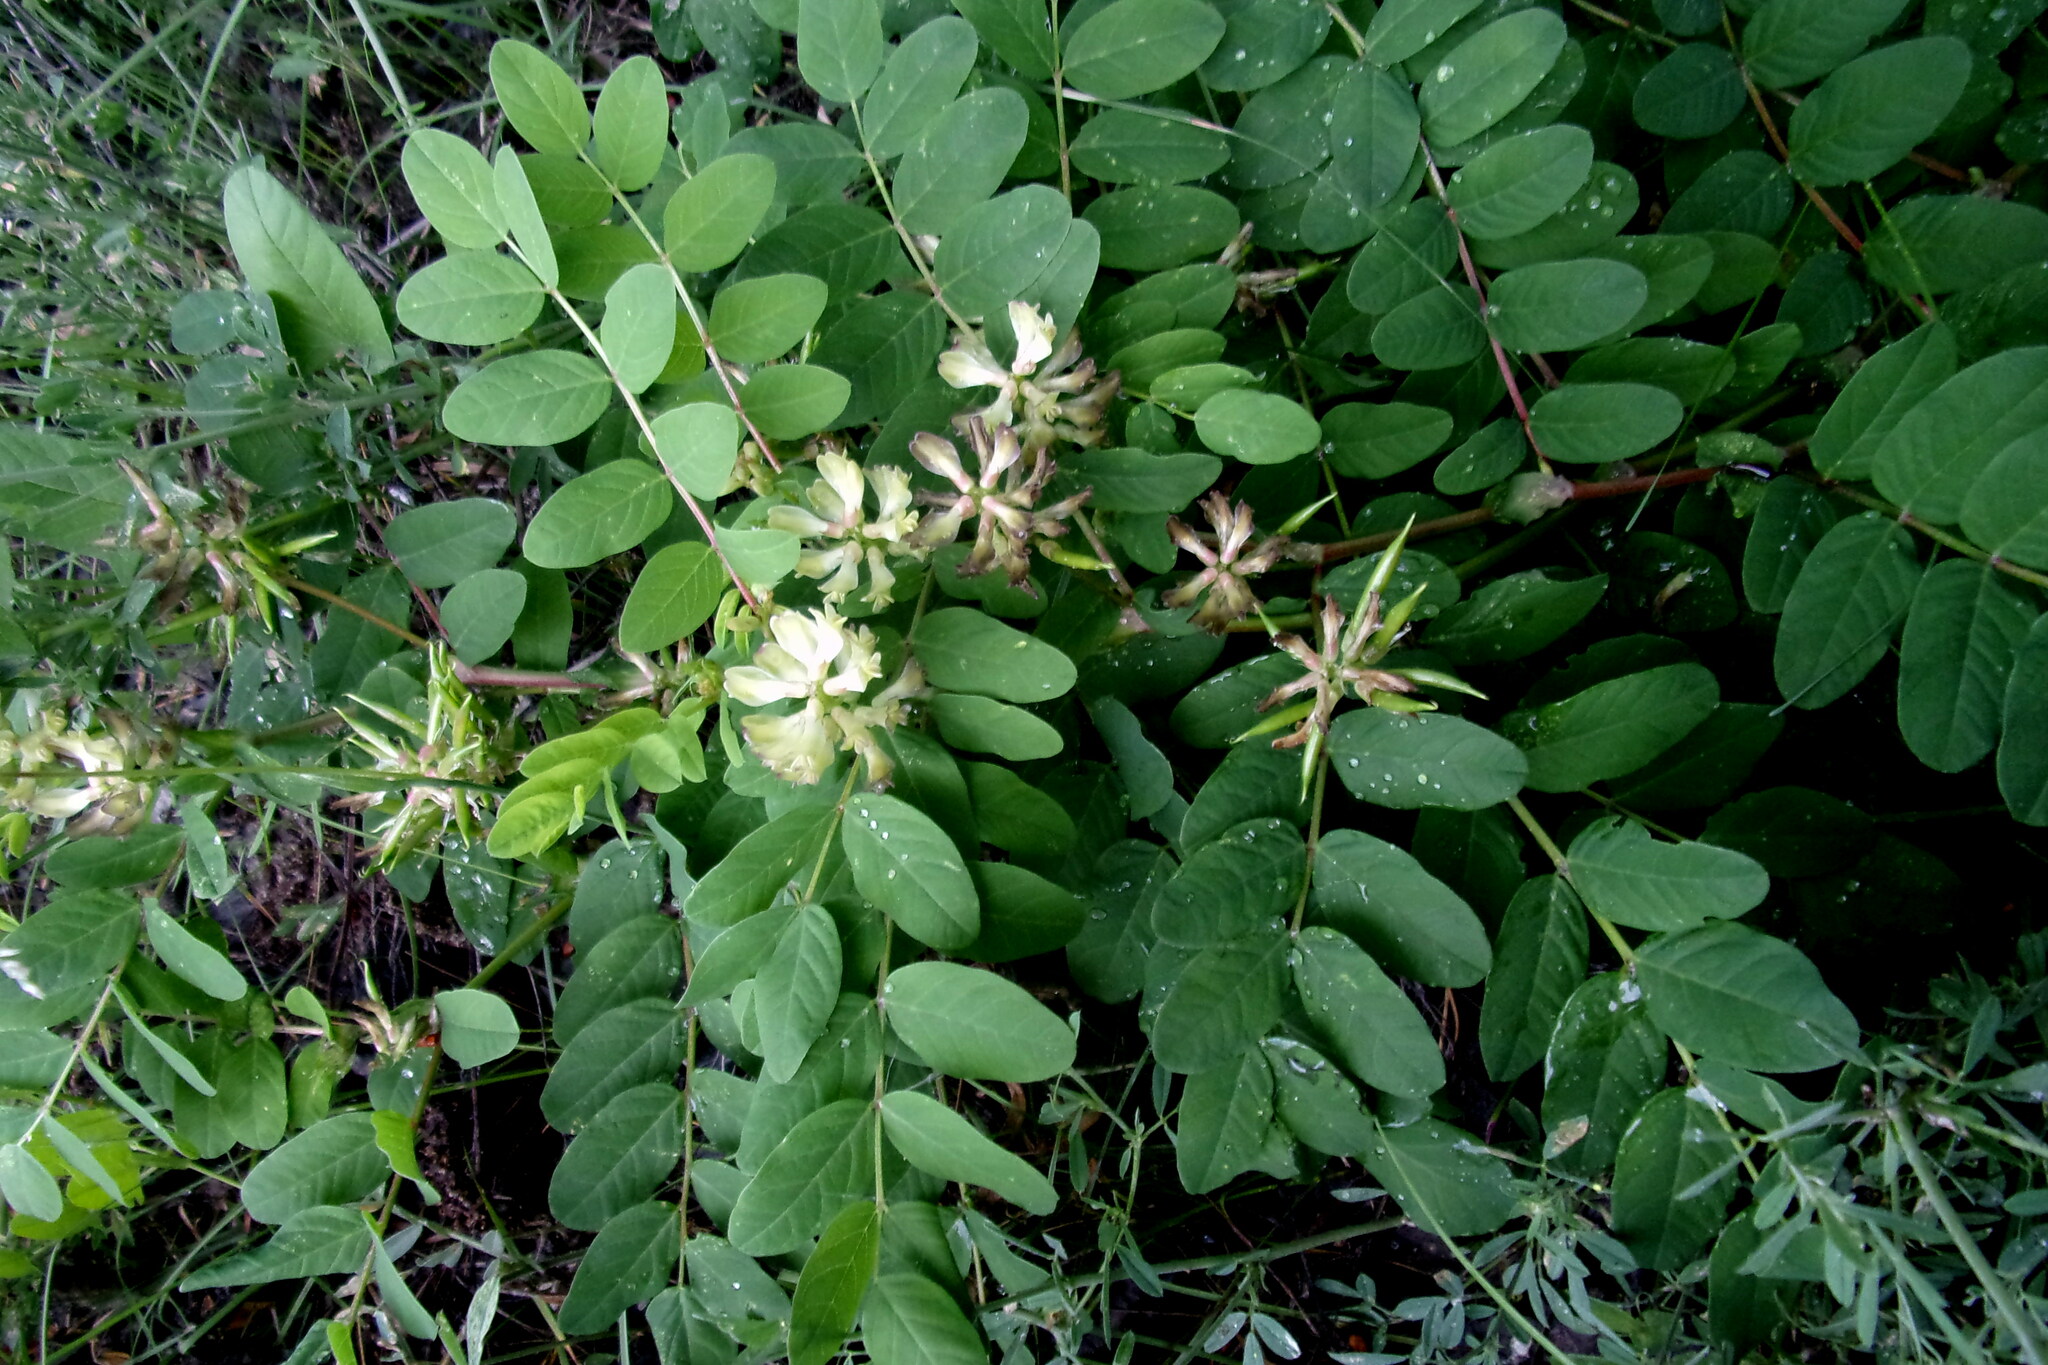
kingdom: Plantae
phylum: Tracheophyta
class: Magnoliopsida
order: Fabales
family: Fabaceae
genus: Astragalus
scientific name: Astragalus glycyphyllos
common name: Wild liquorice
